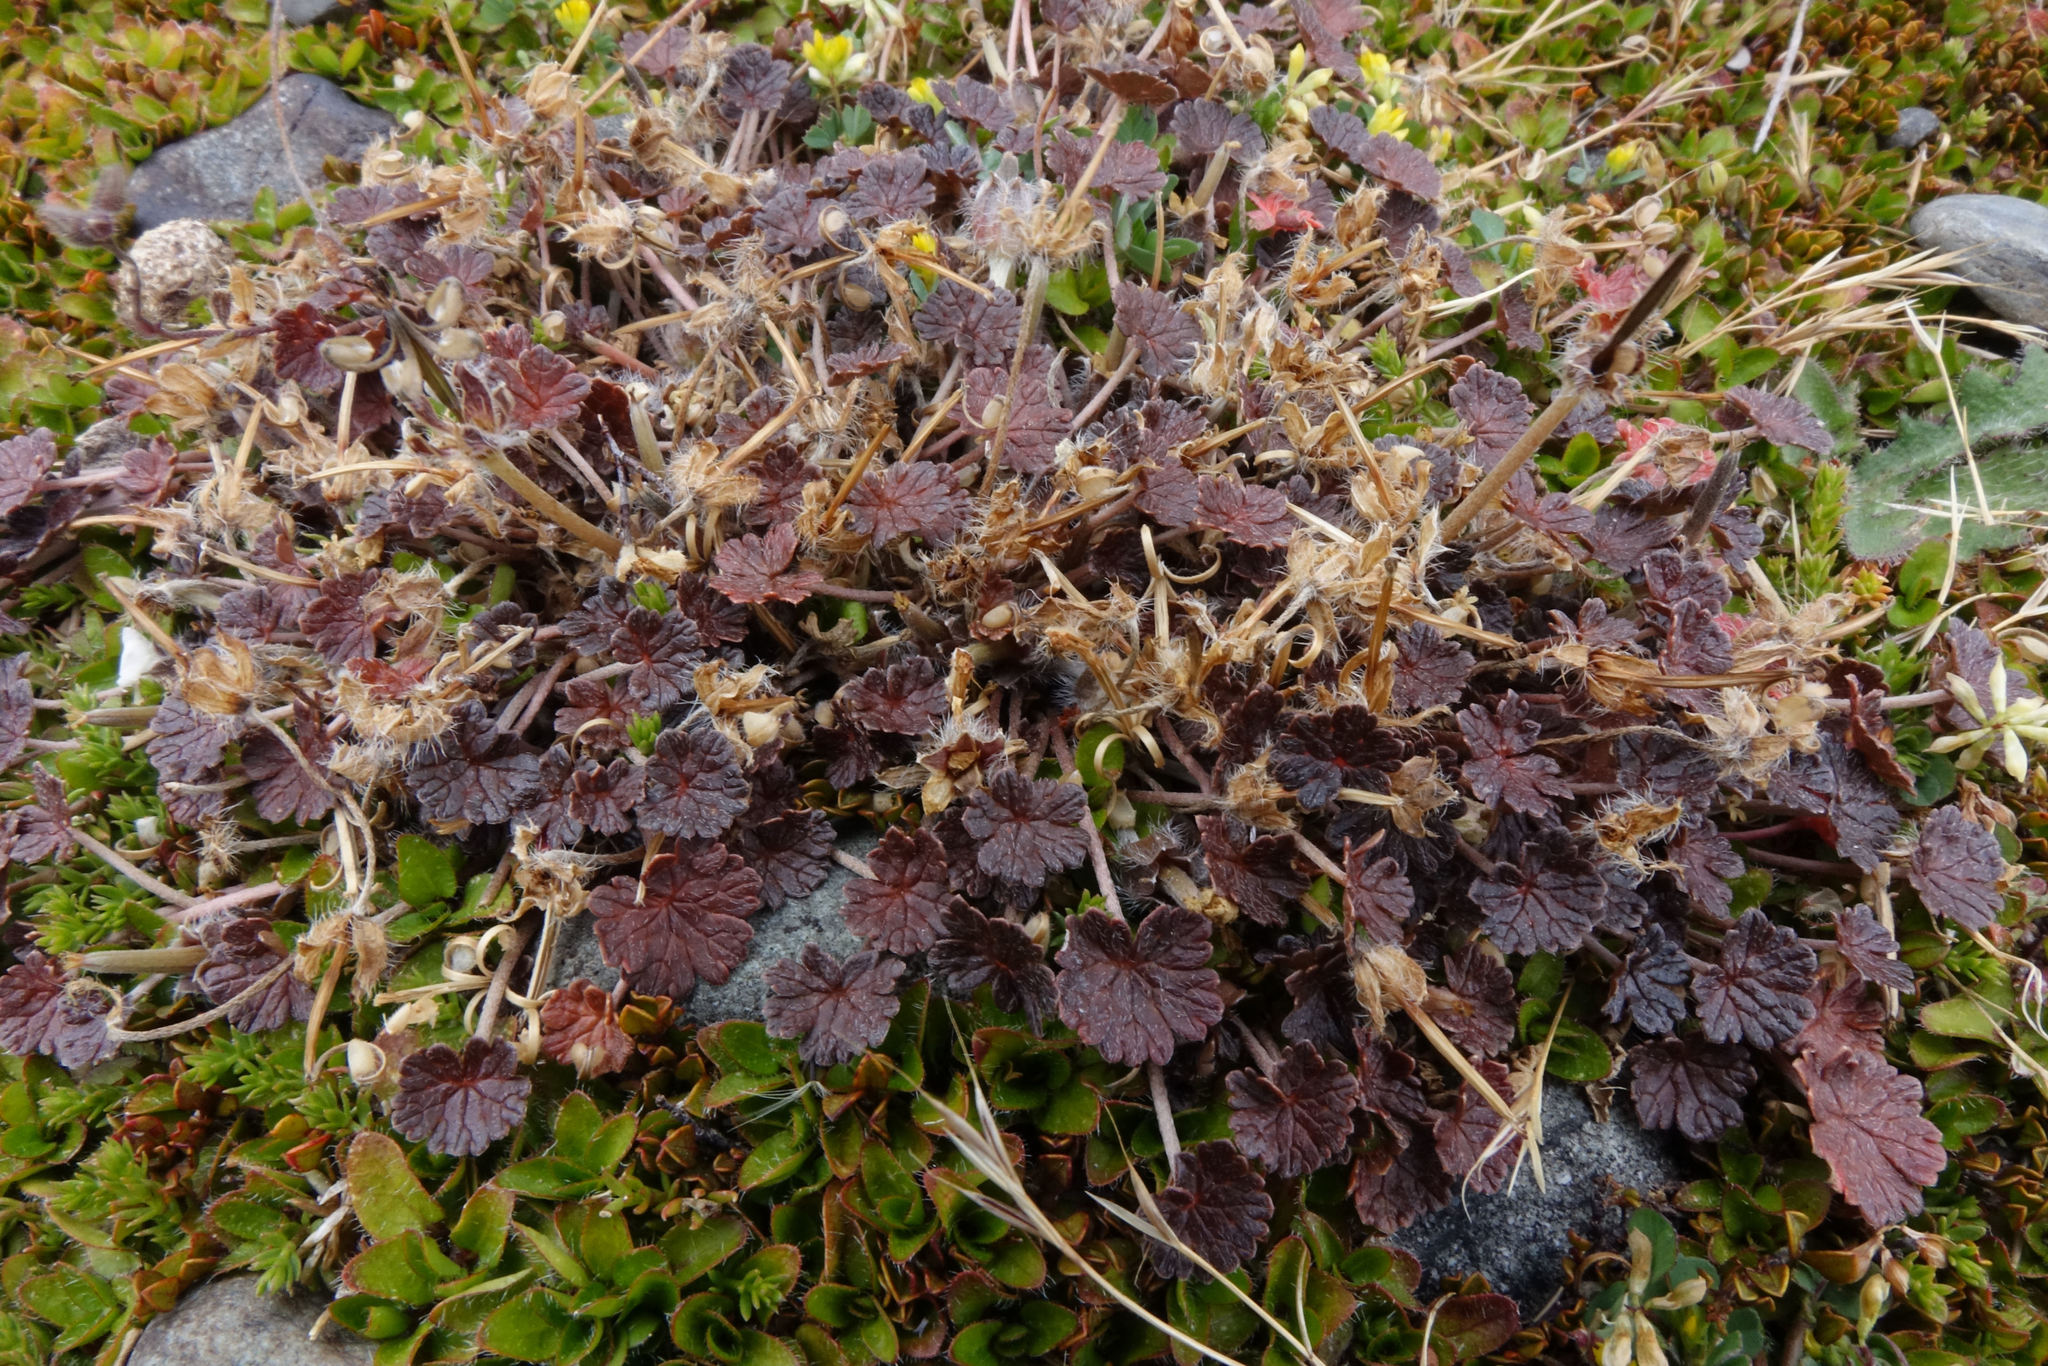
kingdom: Plantae
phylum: Tracheophyta
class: Magnoliopsida
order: Geraniales
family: Geraniaceae
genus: Geranium
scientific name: Geranium brevicaule
